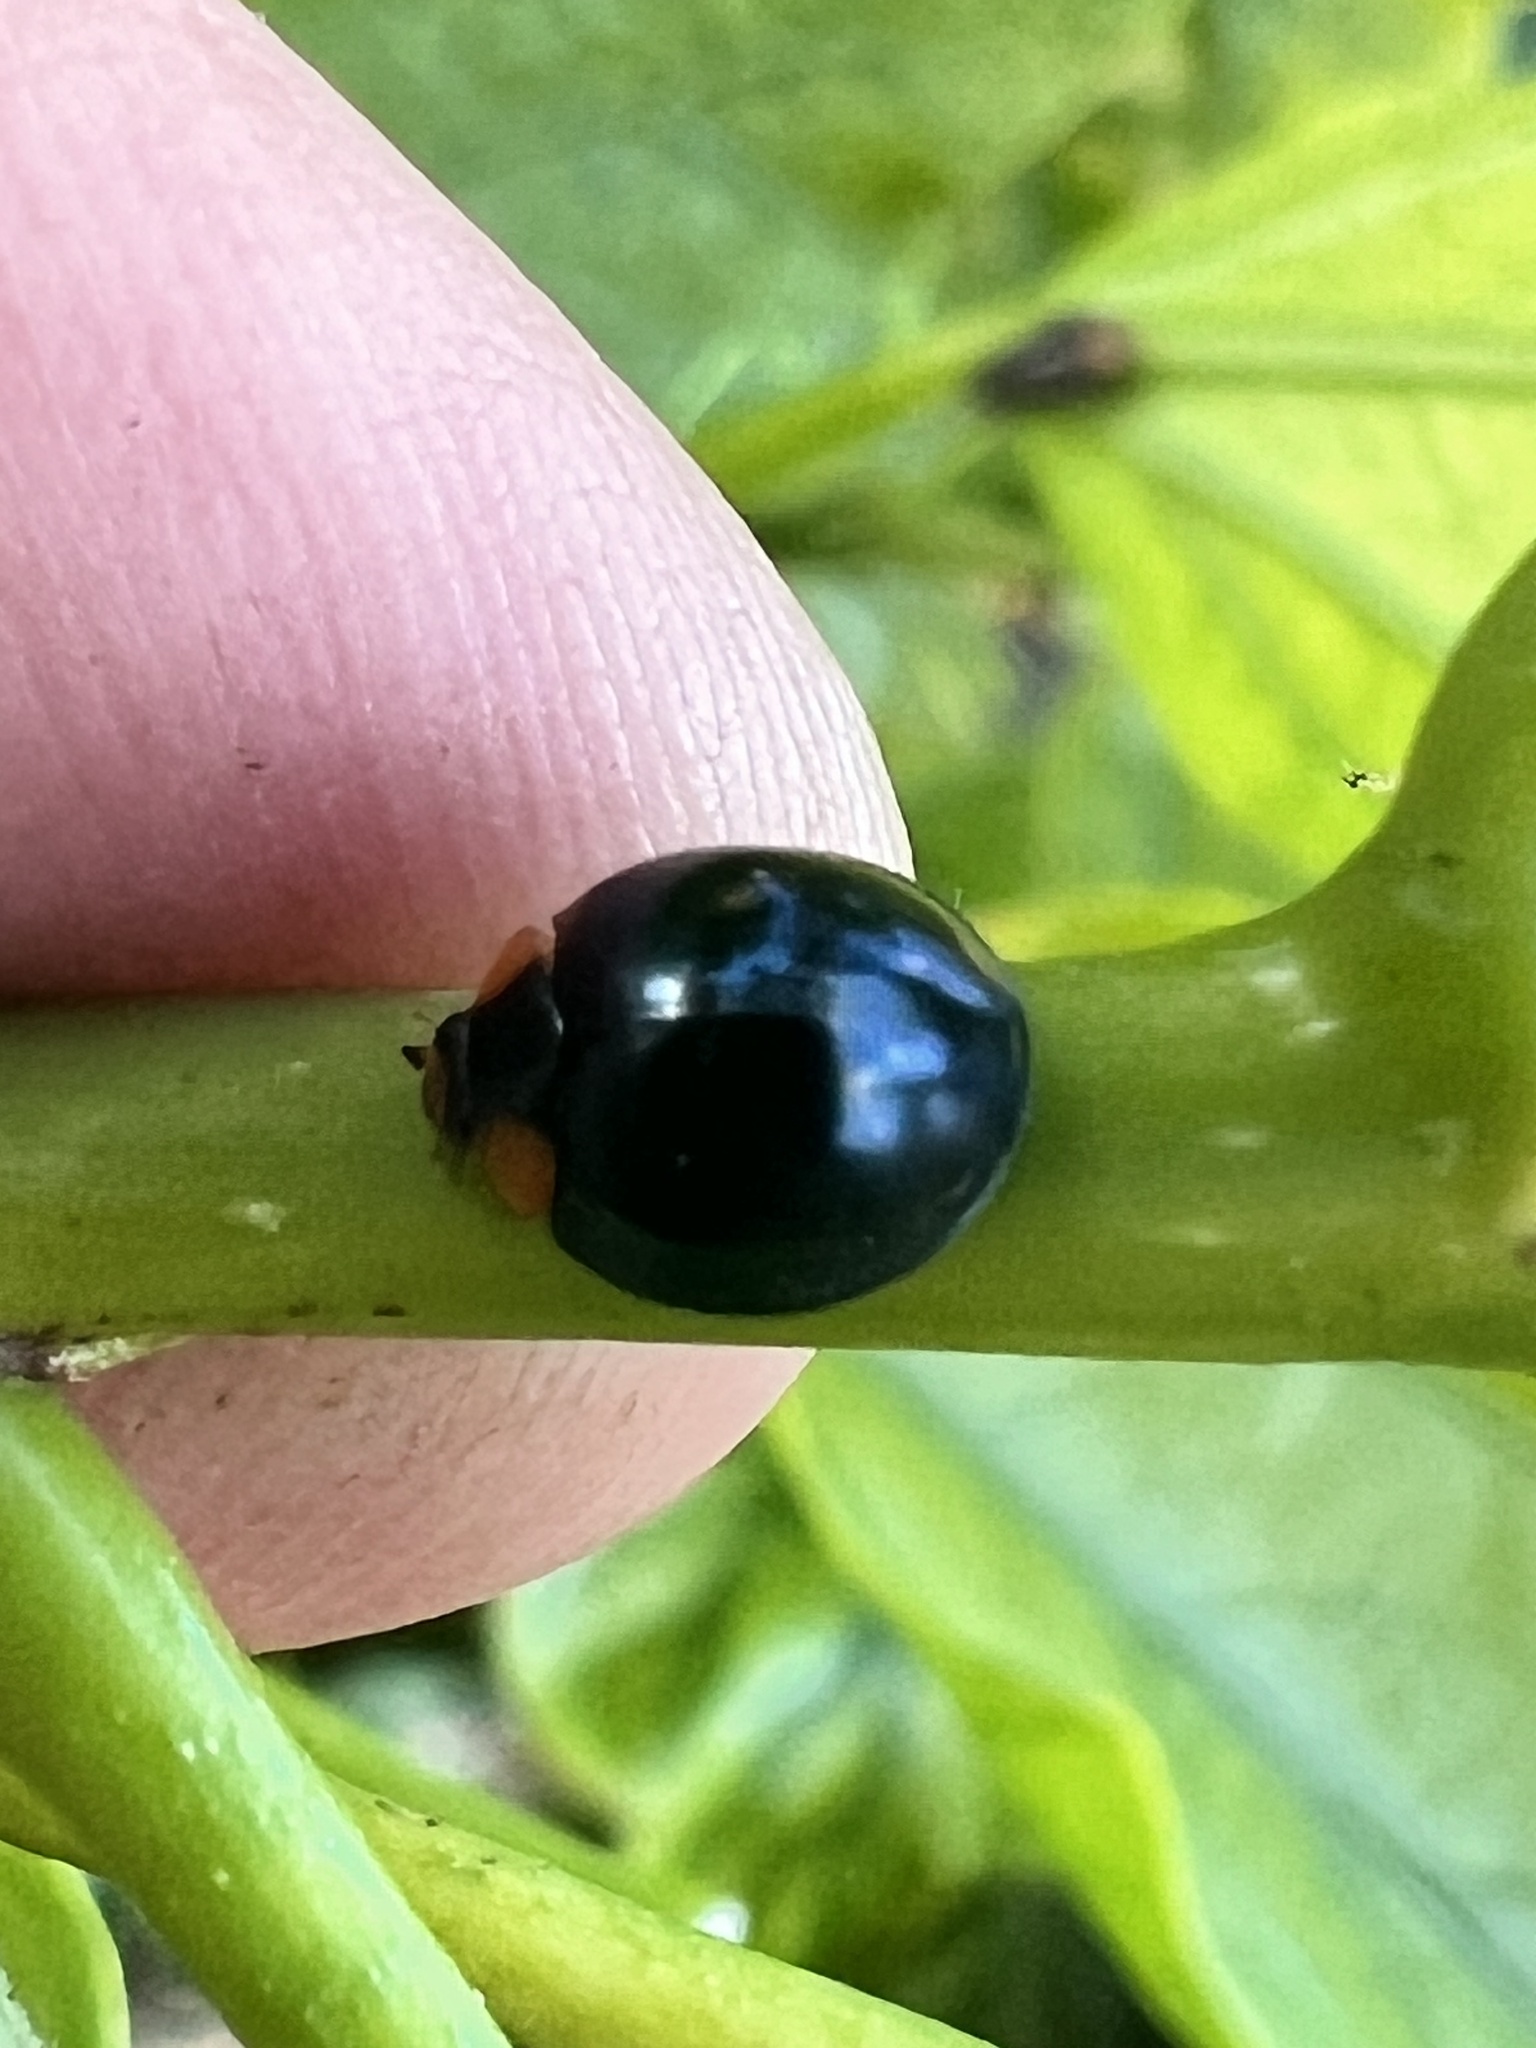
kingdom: Animalia
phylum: Arthropoda
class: Insecta
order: Coleoptera
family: Coccinellidae
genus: Curinus
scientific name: Curinus coeruleus
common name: Ladybird beetle
